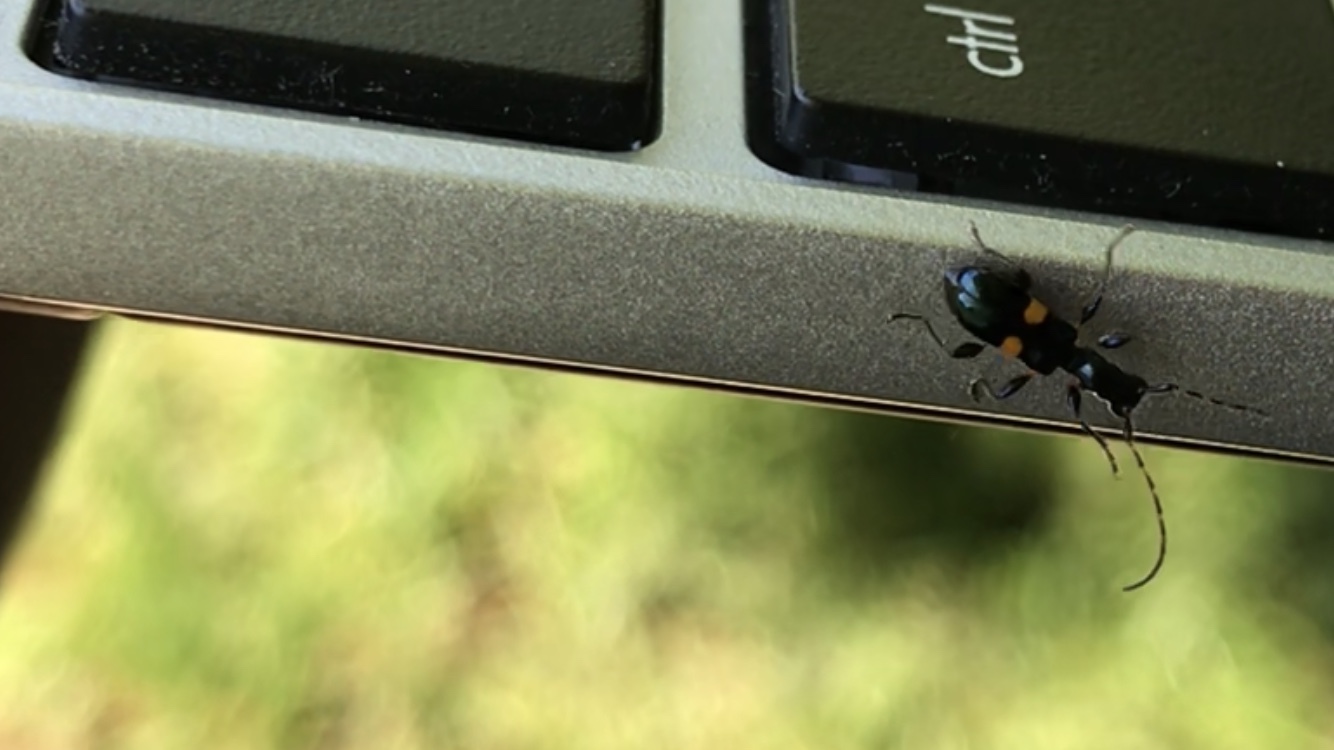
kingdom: Animalia
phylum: Arthropoda
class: Insecta
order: Coleoptera
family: Cerambycidae
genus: Zorion
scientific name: Zorion guttigerum
